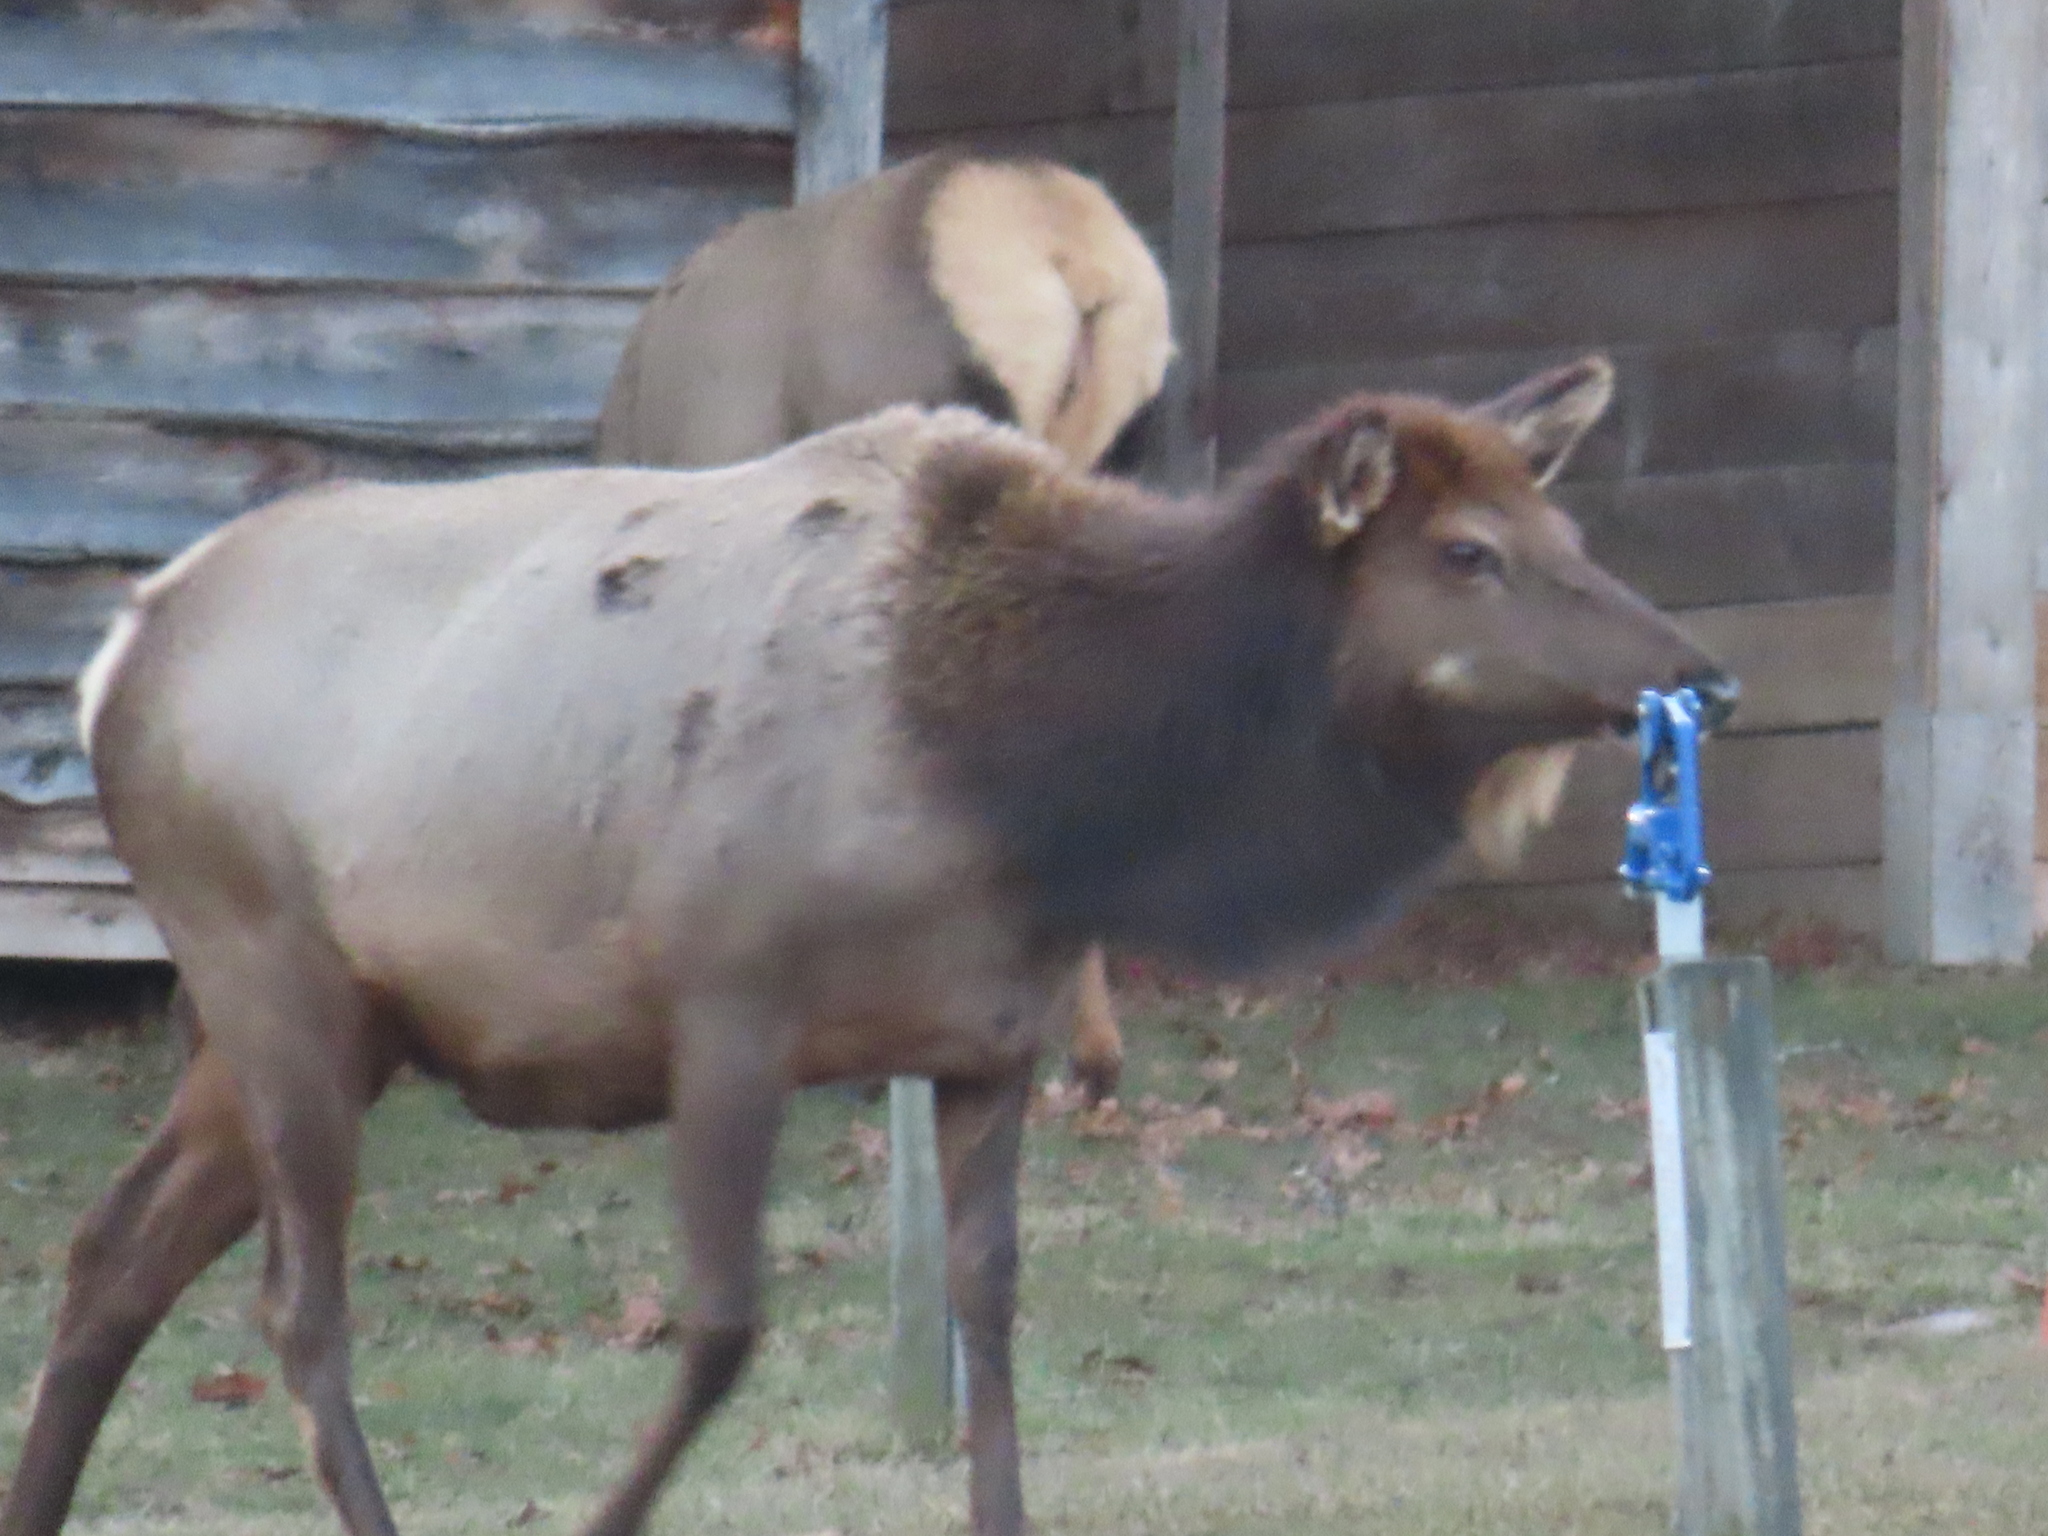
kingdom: Animalia
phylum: Chordata
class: Mammalia
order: Artiodactyla
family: Cervidae
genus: Cervus
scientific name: Cervus elaphus
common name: Red deer
